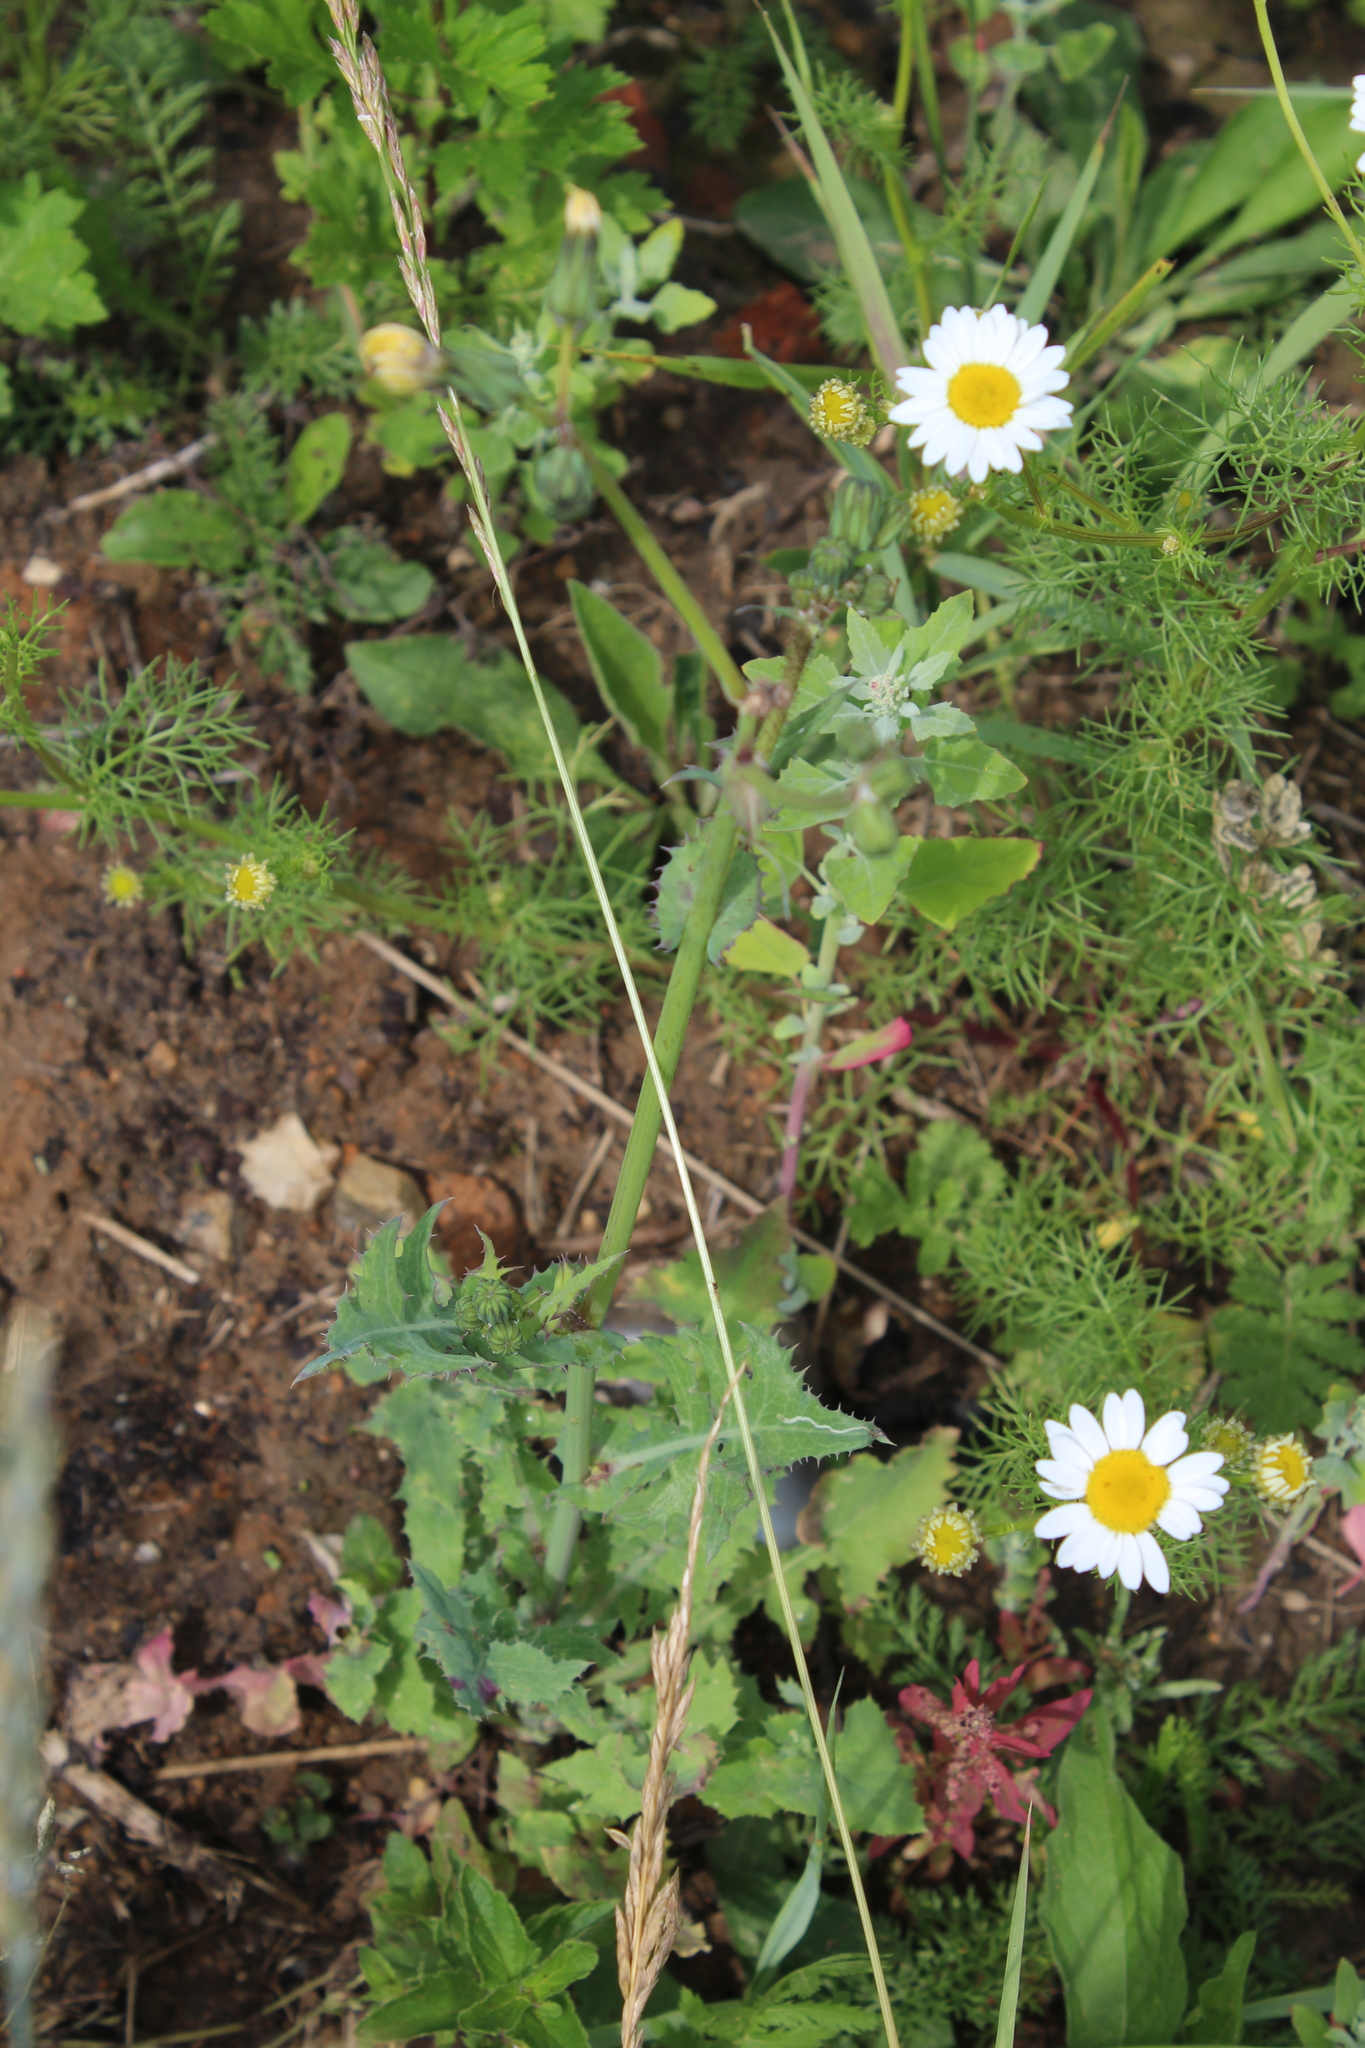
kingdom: Plantae
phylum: Tracheophyta
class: Magnoliopsida
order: Asterales
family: Asteraceae
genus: Sonchus
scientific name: Sonchus oleraceus
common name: Common sowthistle
